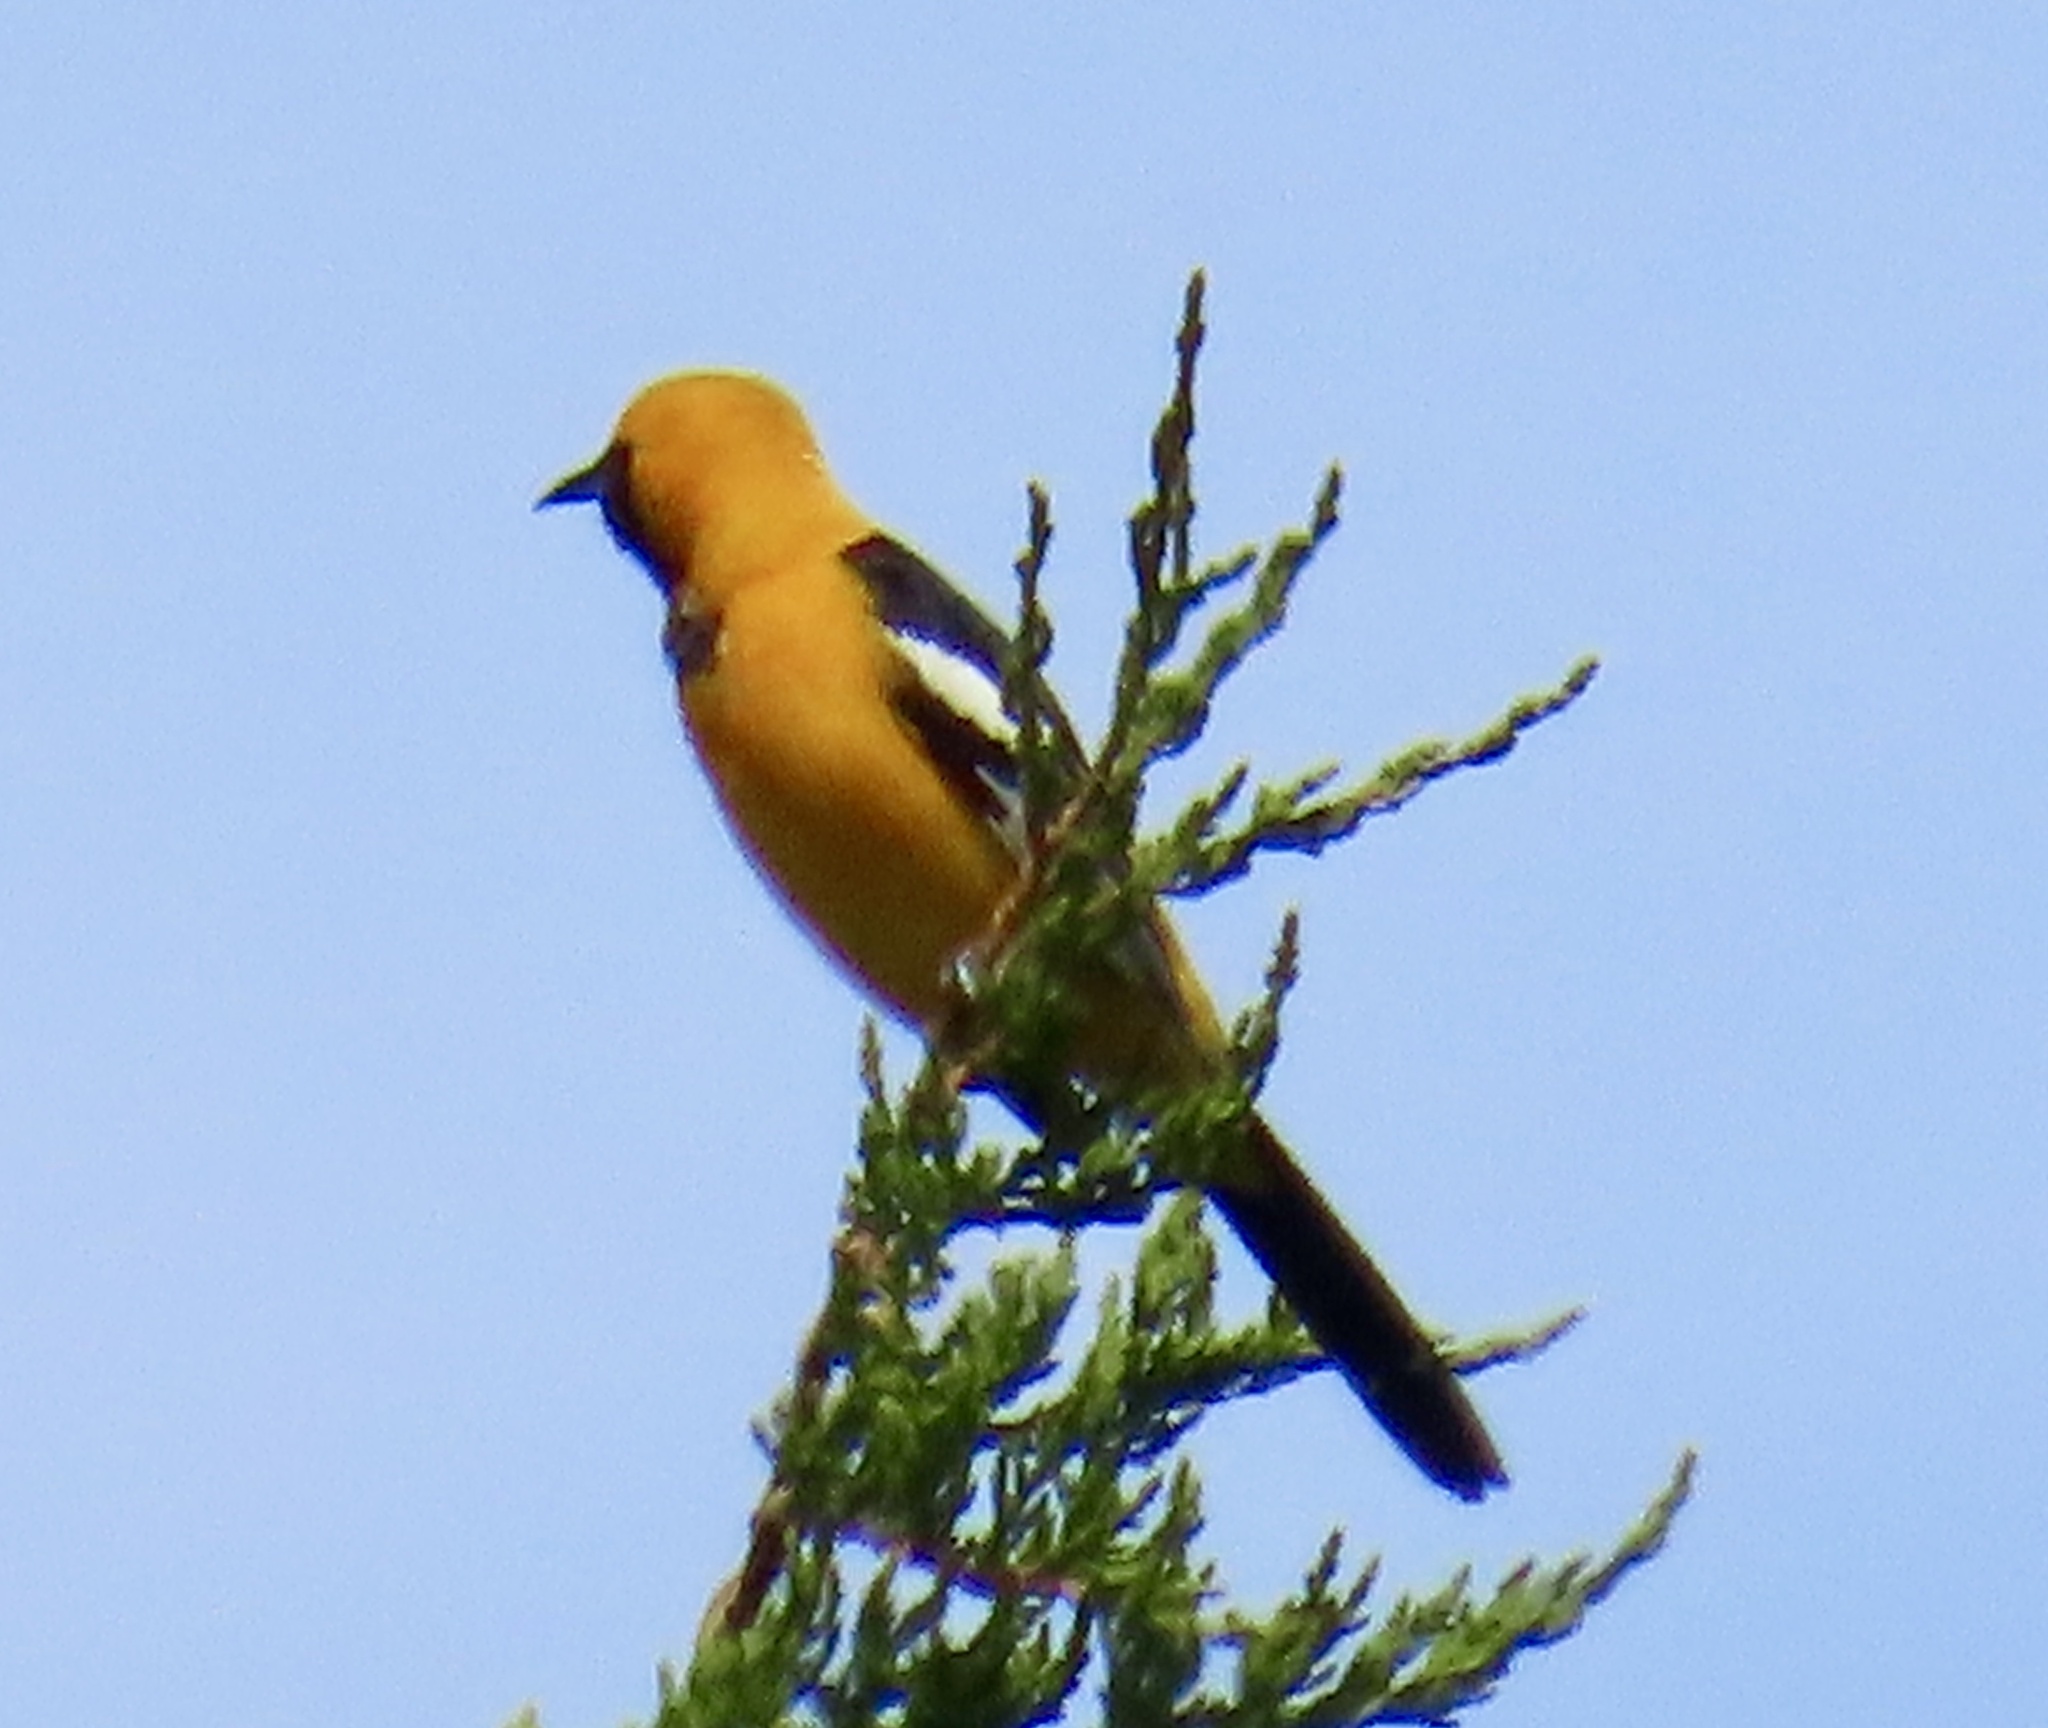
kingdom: Animalia
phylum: Chordata
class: Aves
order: Passeriformes
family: Icteridae
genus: Icterus
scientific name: Icterus cucullatus
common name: Hooded oriole
